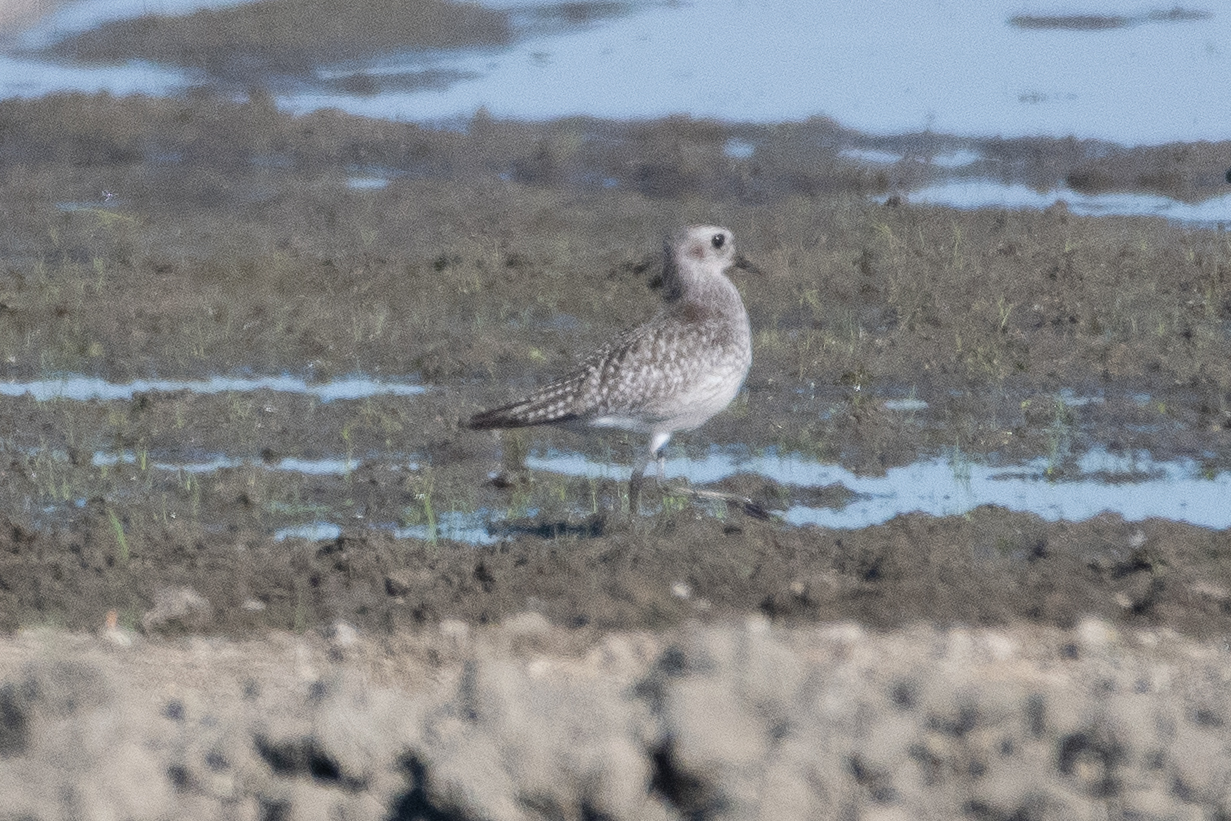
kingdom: Animalia
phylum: Chordata
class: Aves
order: Charadriiformes
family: Charadriidae
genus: Pluvialis
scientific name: Pluvialis squatarola
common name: Grey plover
